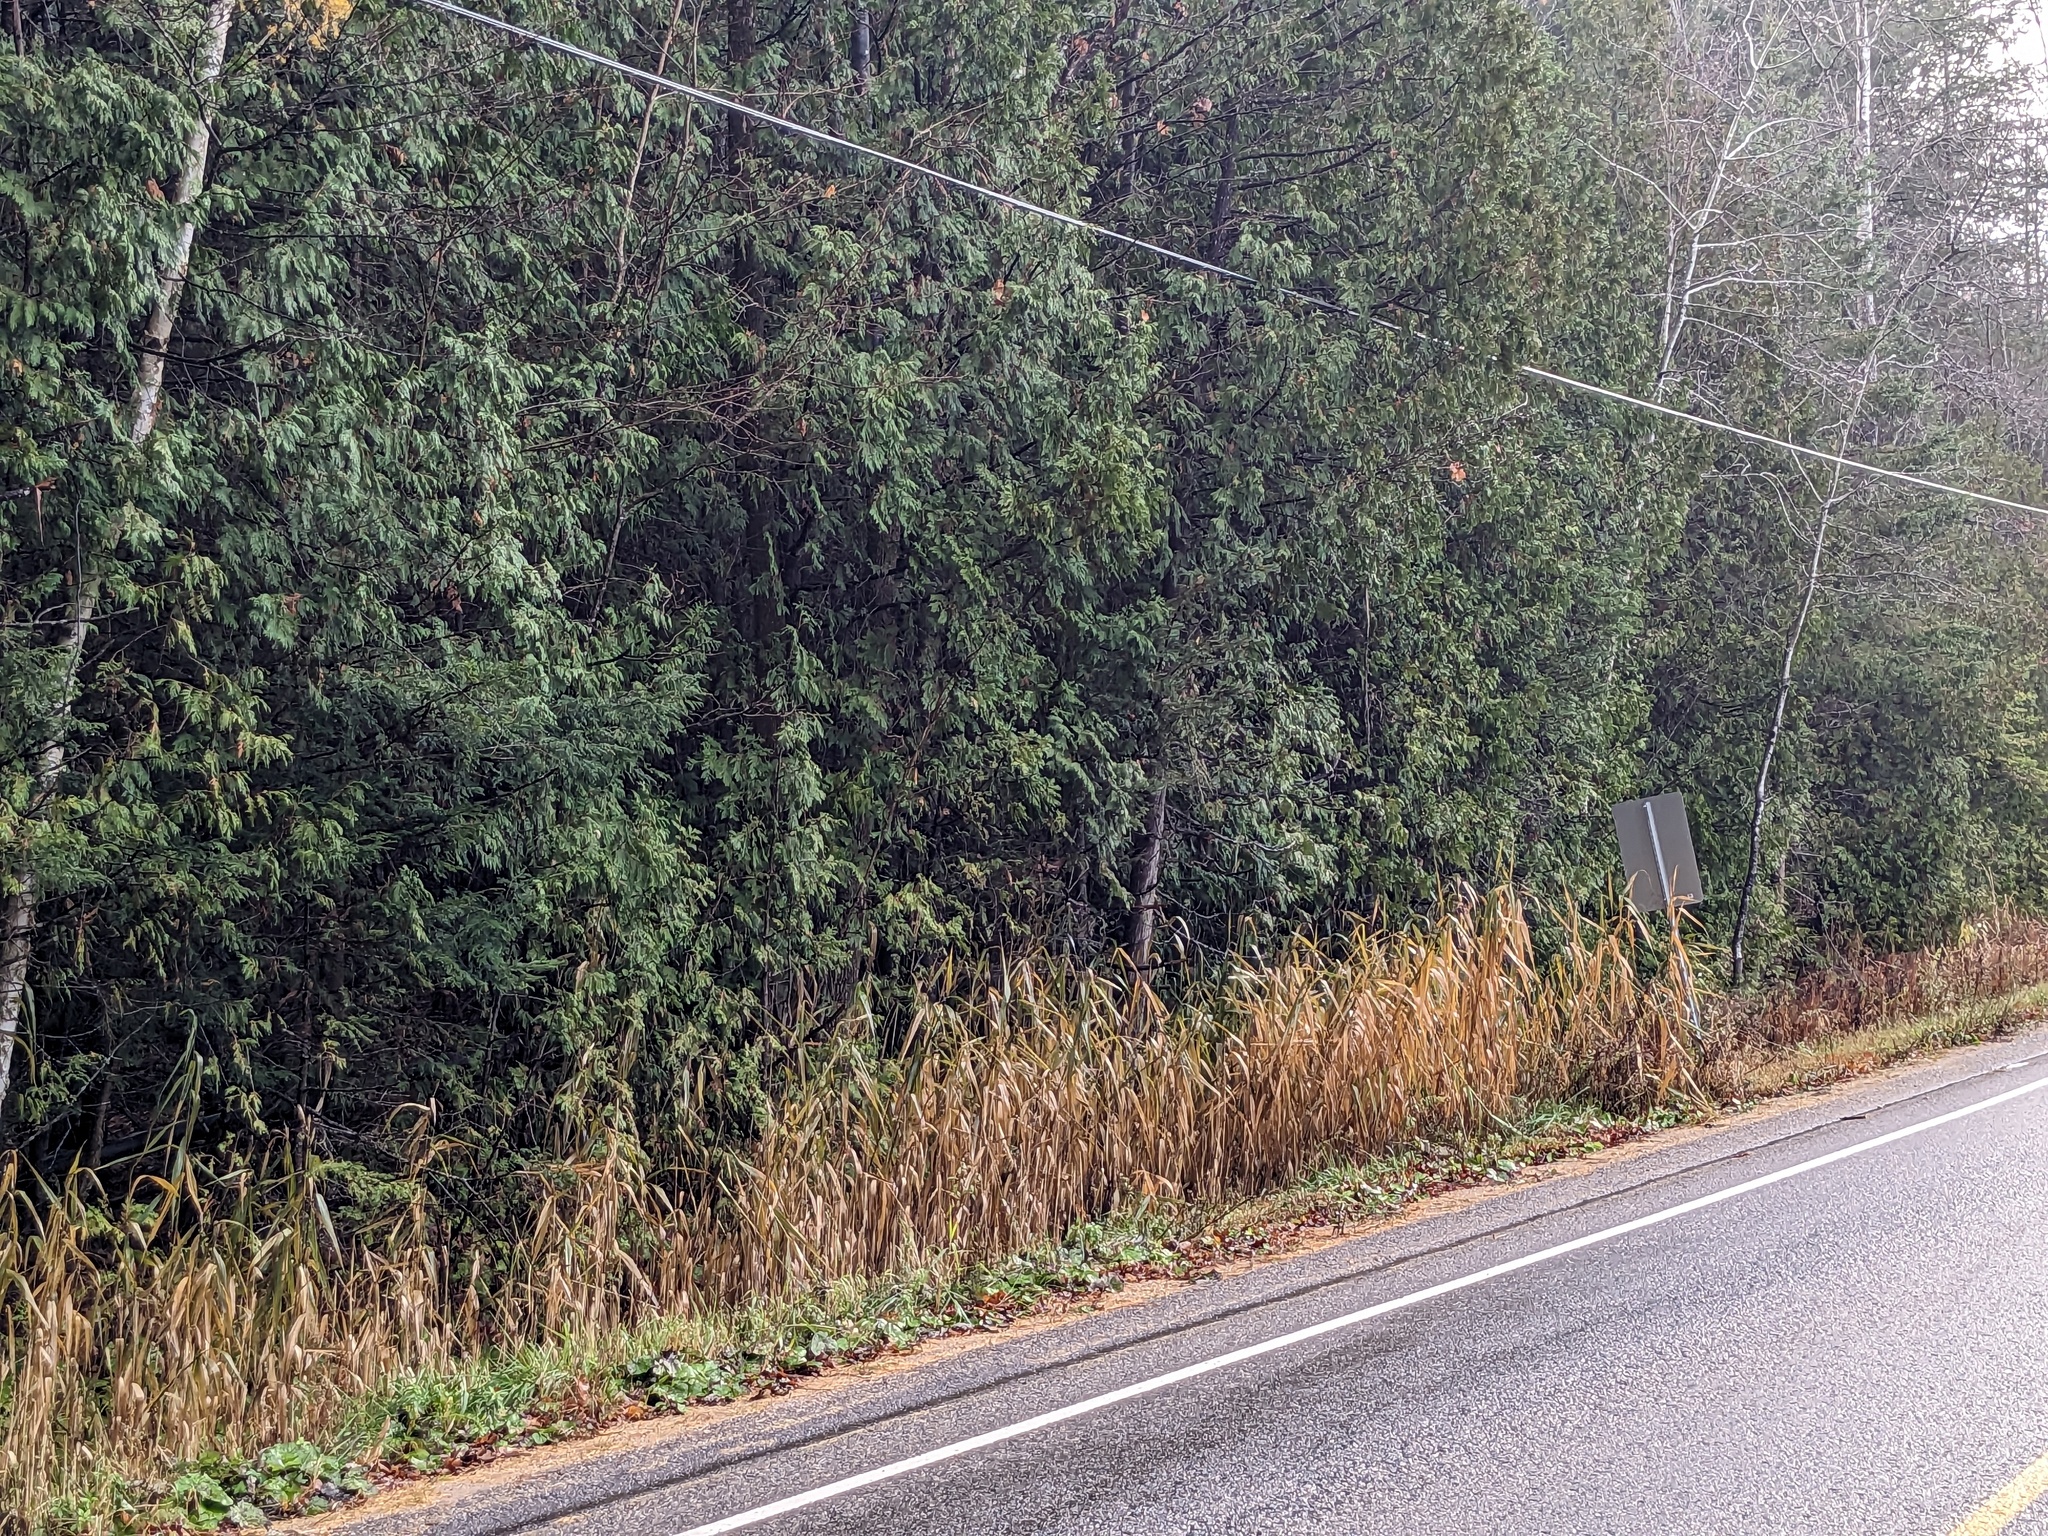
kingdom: Plantae
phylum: Tracheophyta
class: Liliopsida
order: Poales
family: Poaceae
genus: Phragmites
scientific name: Phragmites australis
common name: Common reed
